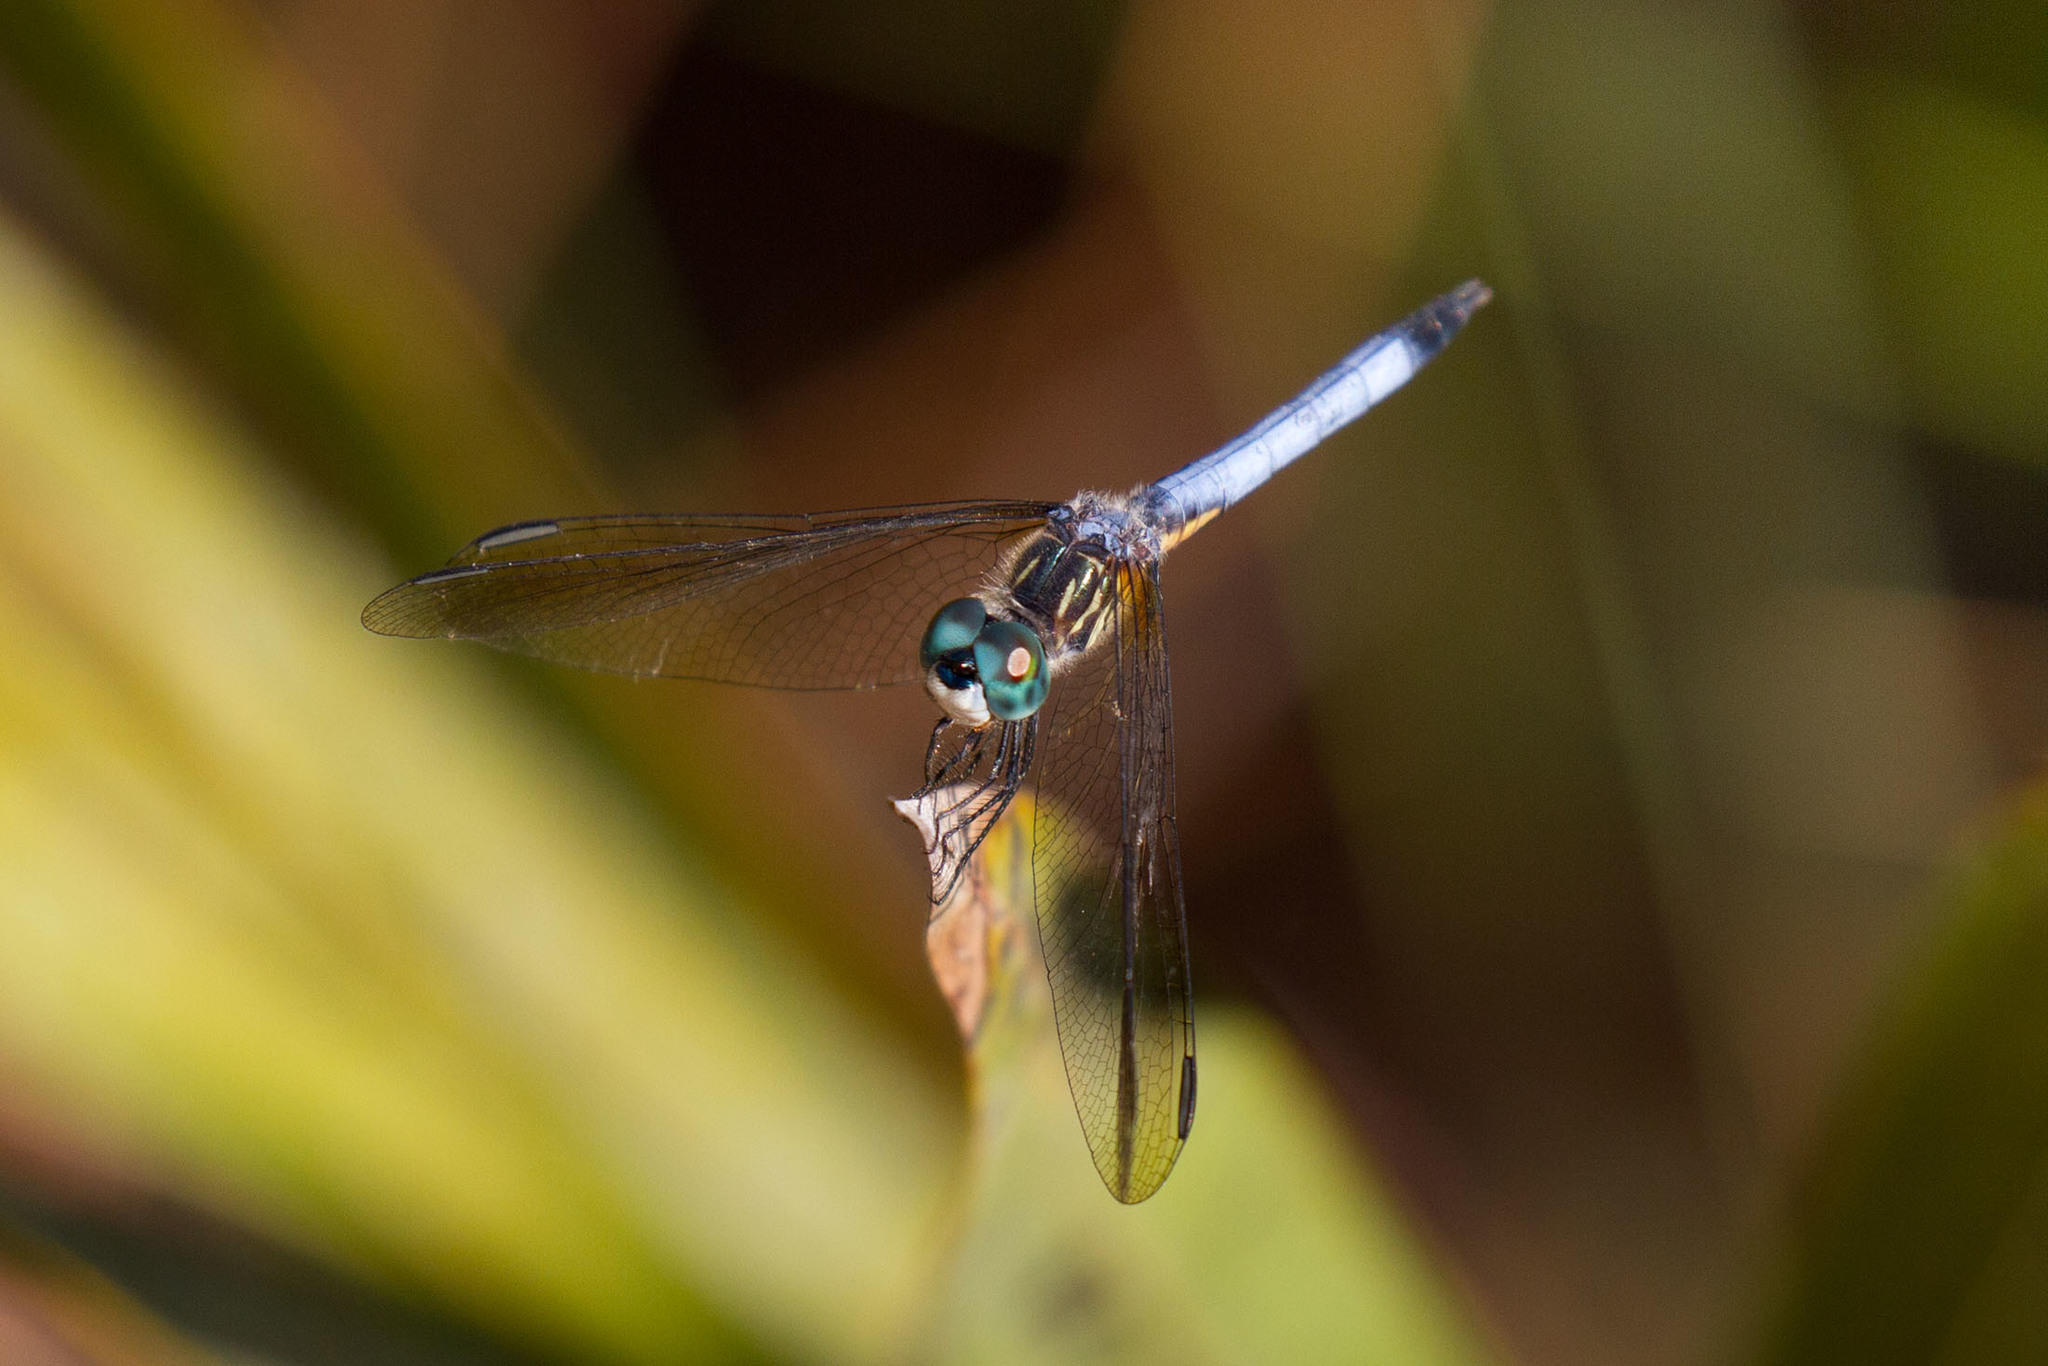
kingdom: Animalia
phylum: Arthropoda
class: Insecta
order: Odonata
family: Libellulidae
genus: Pachydiplax
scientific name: Pachydiplax longipennis
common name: Blue dasher
